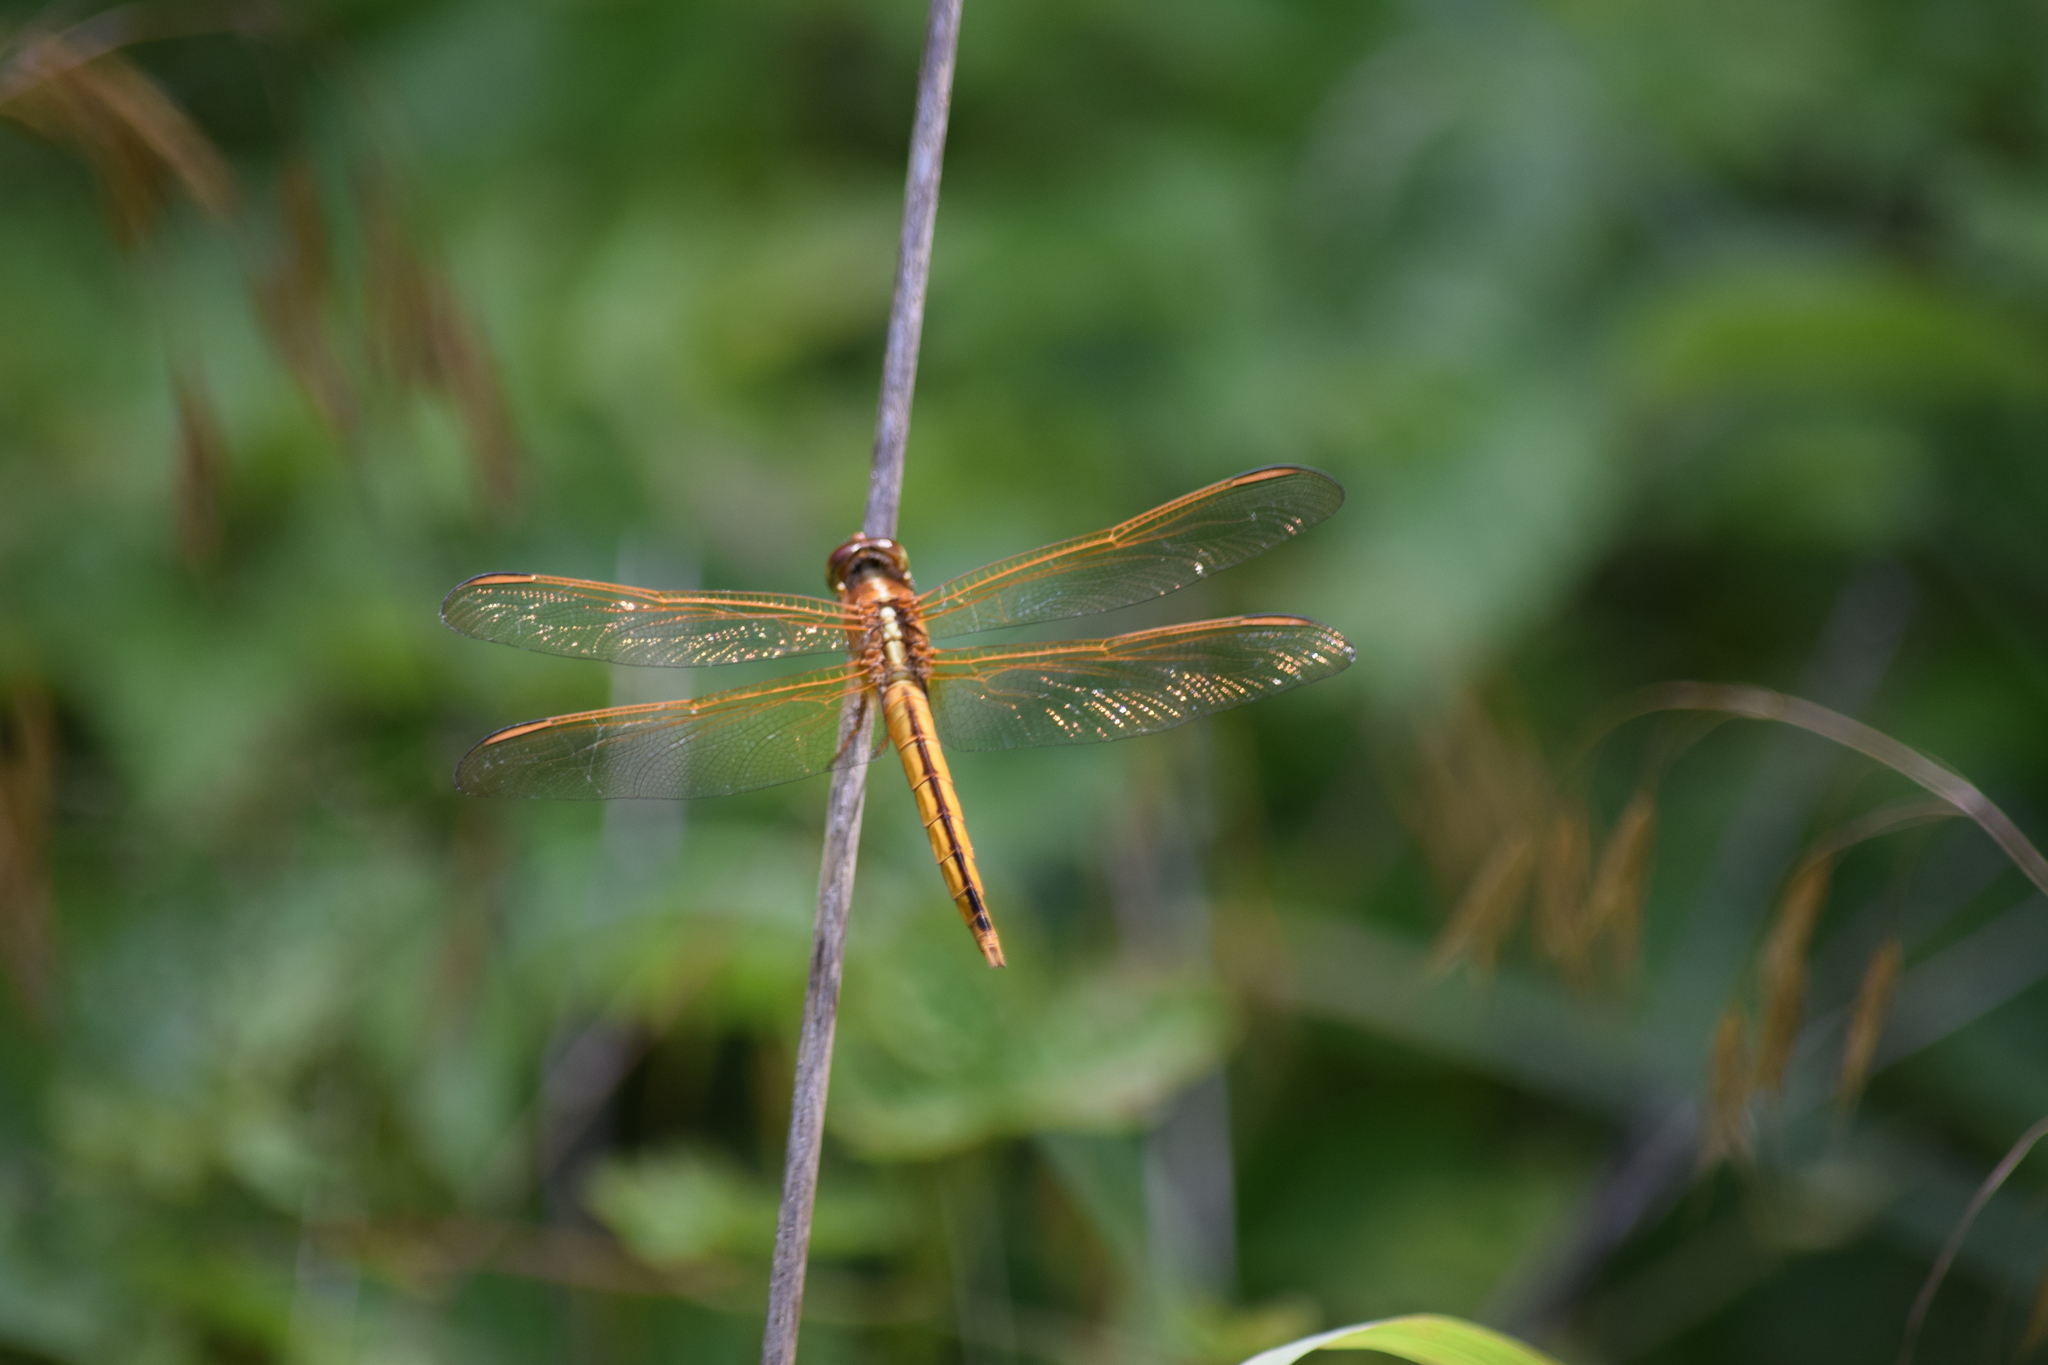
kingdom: Animalia
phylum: Arthropoda
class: Insecta
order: Odonata
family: Libellulidae
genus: Libellula
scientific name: Libellula needhami
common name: Needham's skimmer
